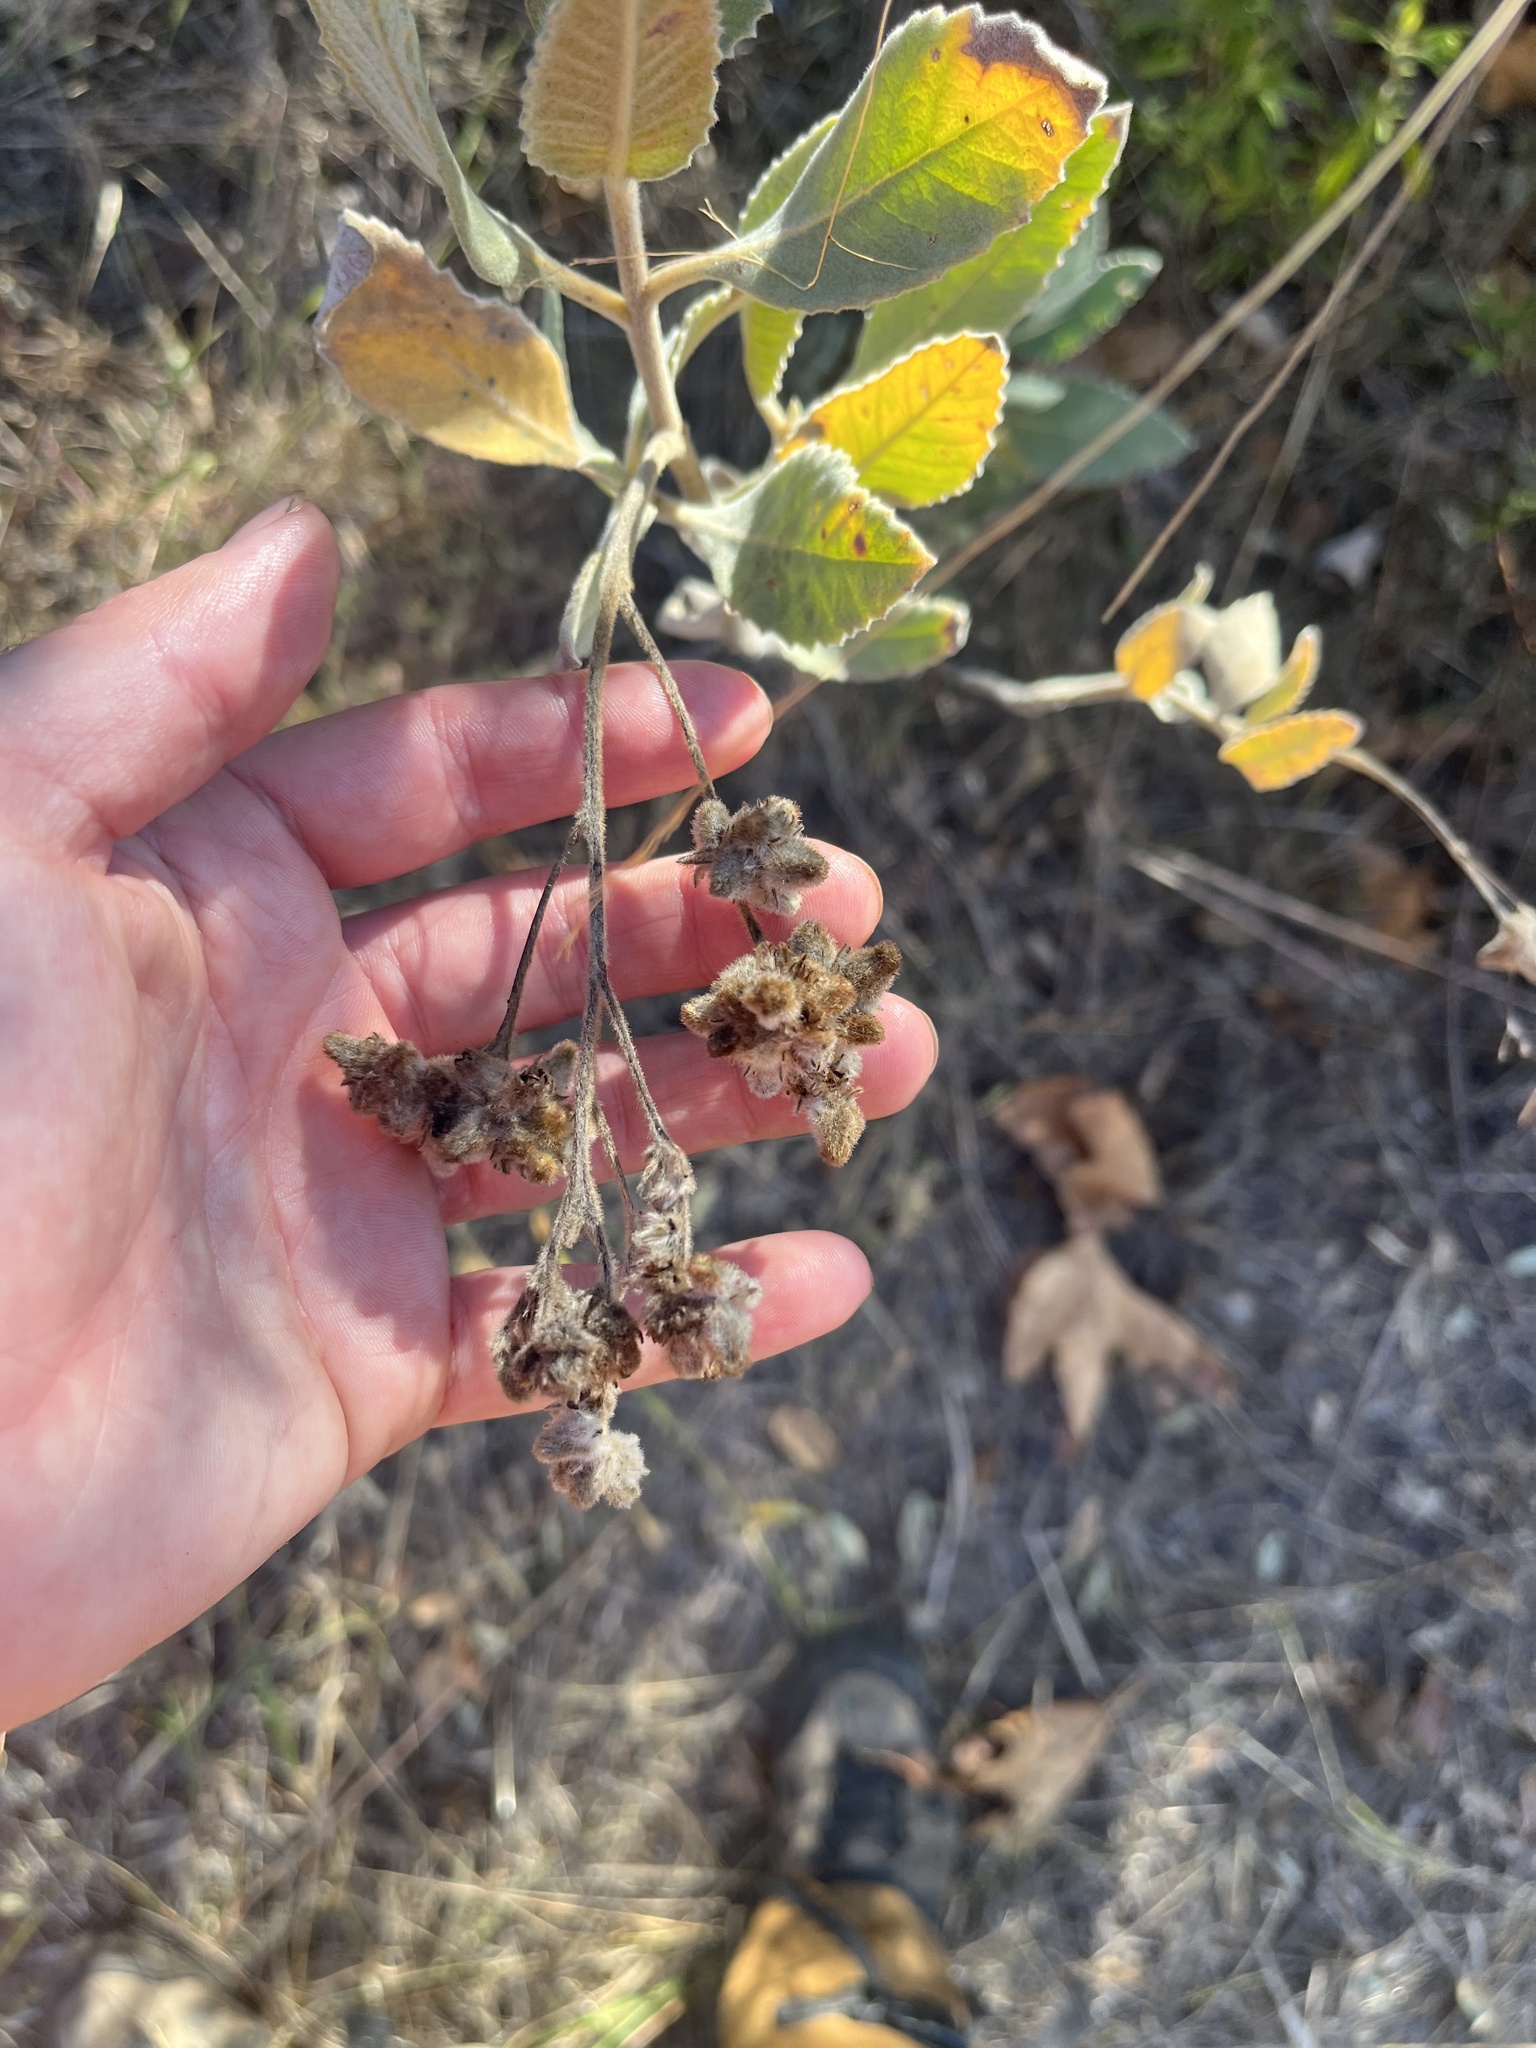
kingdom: Plantae
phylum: Tracheophyta
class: Magnoliopsida
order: Boraginales
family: Namaceae
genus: Eriodictyon
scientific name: Eriodictyon crassifolium
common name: Thick-leaf yerba-santa
